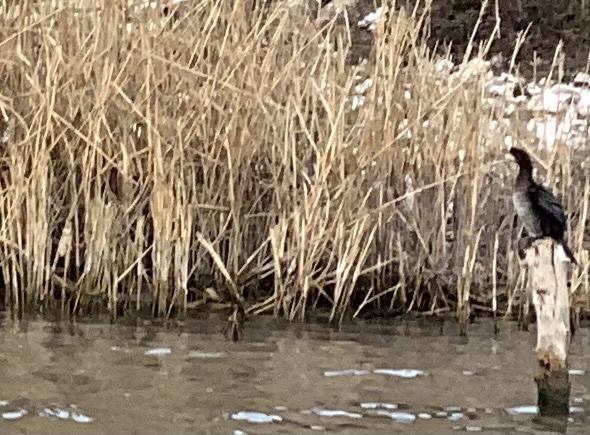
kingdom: Animalia
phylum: Chordata
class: Aves
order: Suliformes
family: Phalacrocoracidae
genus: Microcarbo
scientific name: Microcarbo pygmaeus
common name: Pygmy cormorant
